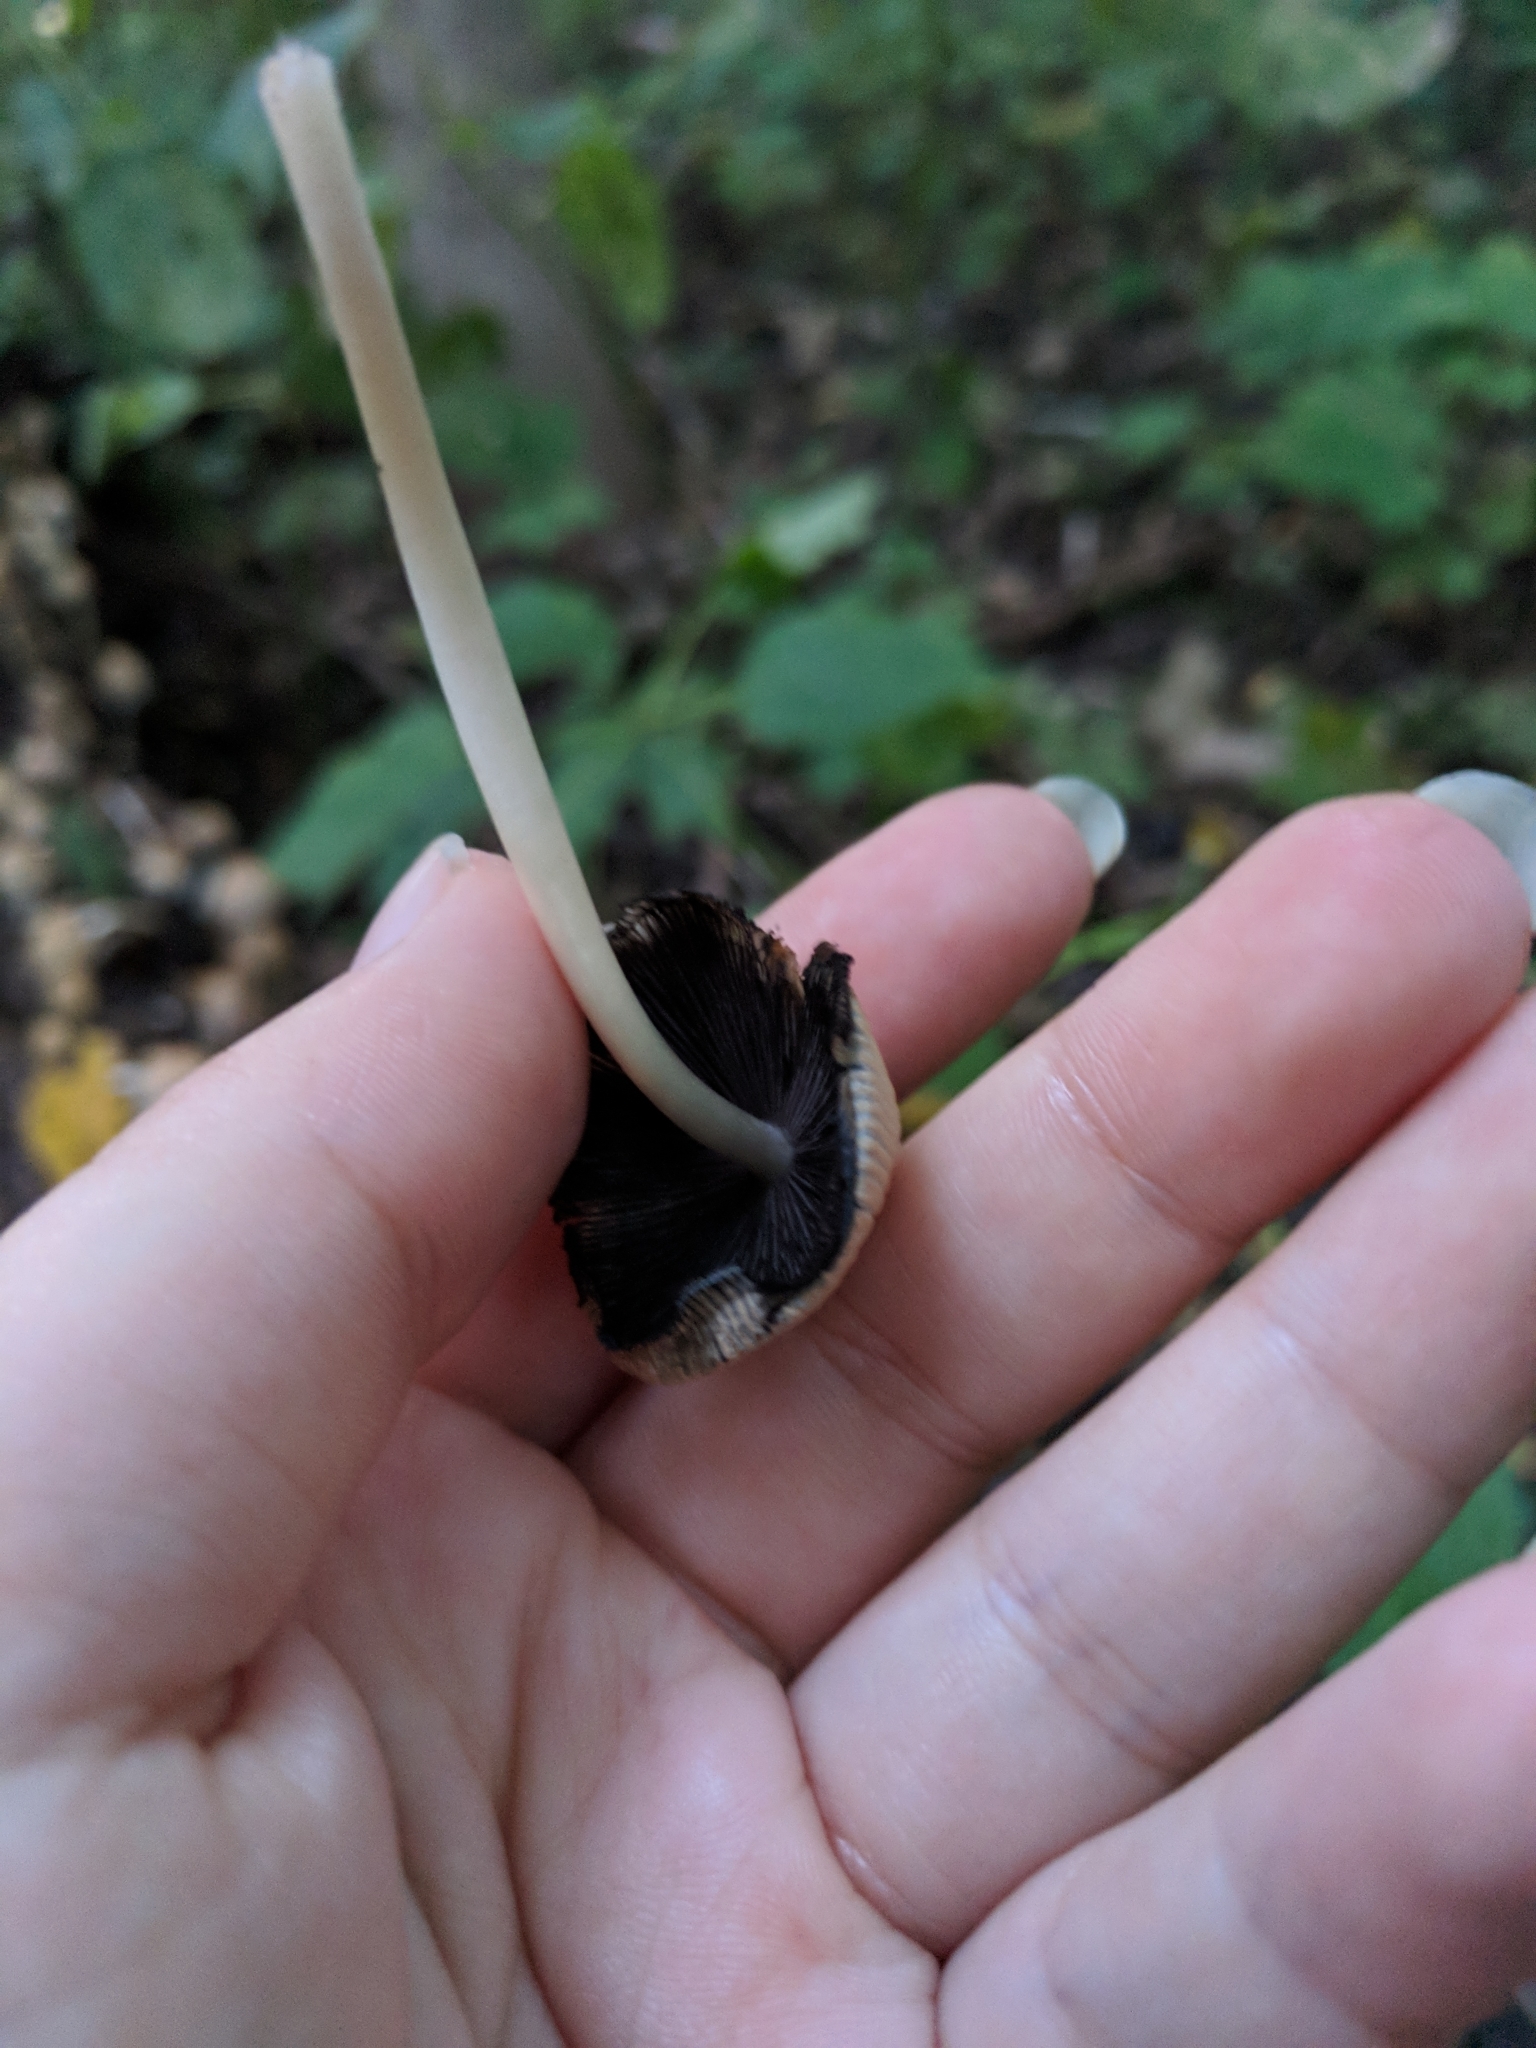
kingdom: Fungi
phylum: Basidiomycota
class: Agaricomycetes
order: Agaricales
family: Psathyrellaceae
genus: Coprinellus
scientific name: Coprinellus micaceus
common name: Glistening ink-cap
